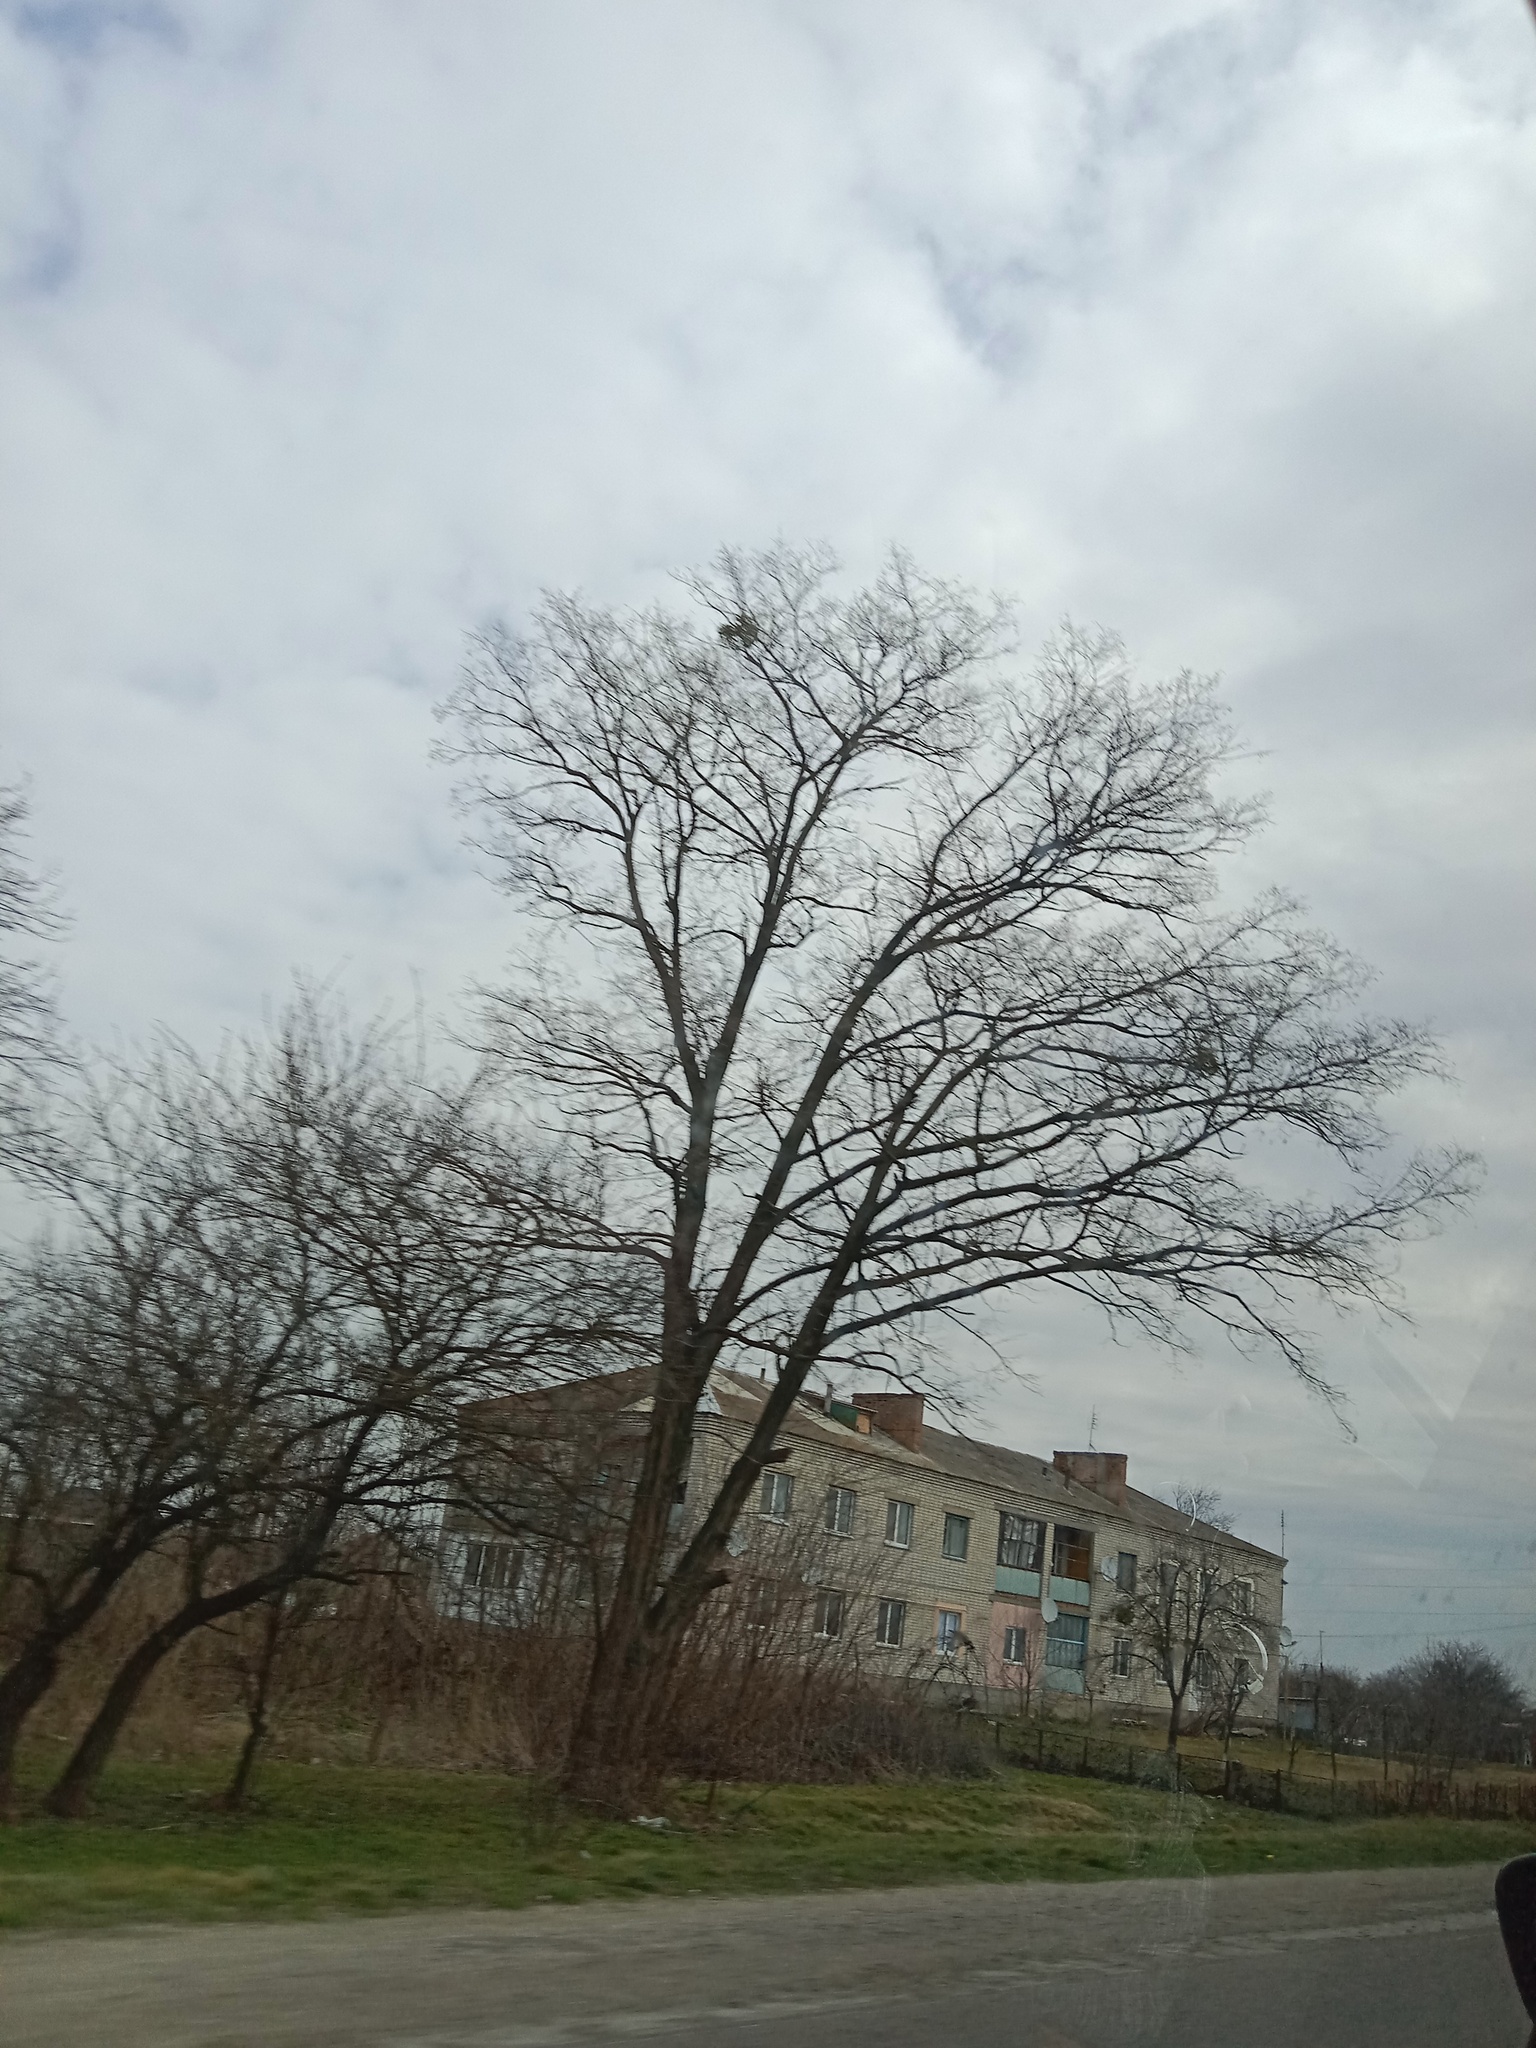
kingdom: Plantae
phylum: Tracheophyta
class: Magnoliopsida
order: Santalales
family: Viscaceae
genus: Viscum
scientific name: Viscum album
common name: Mistletoe
